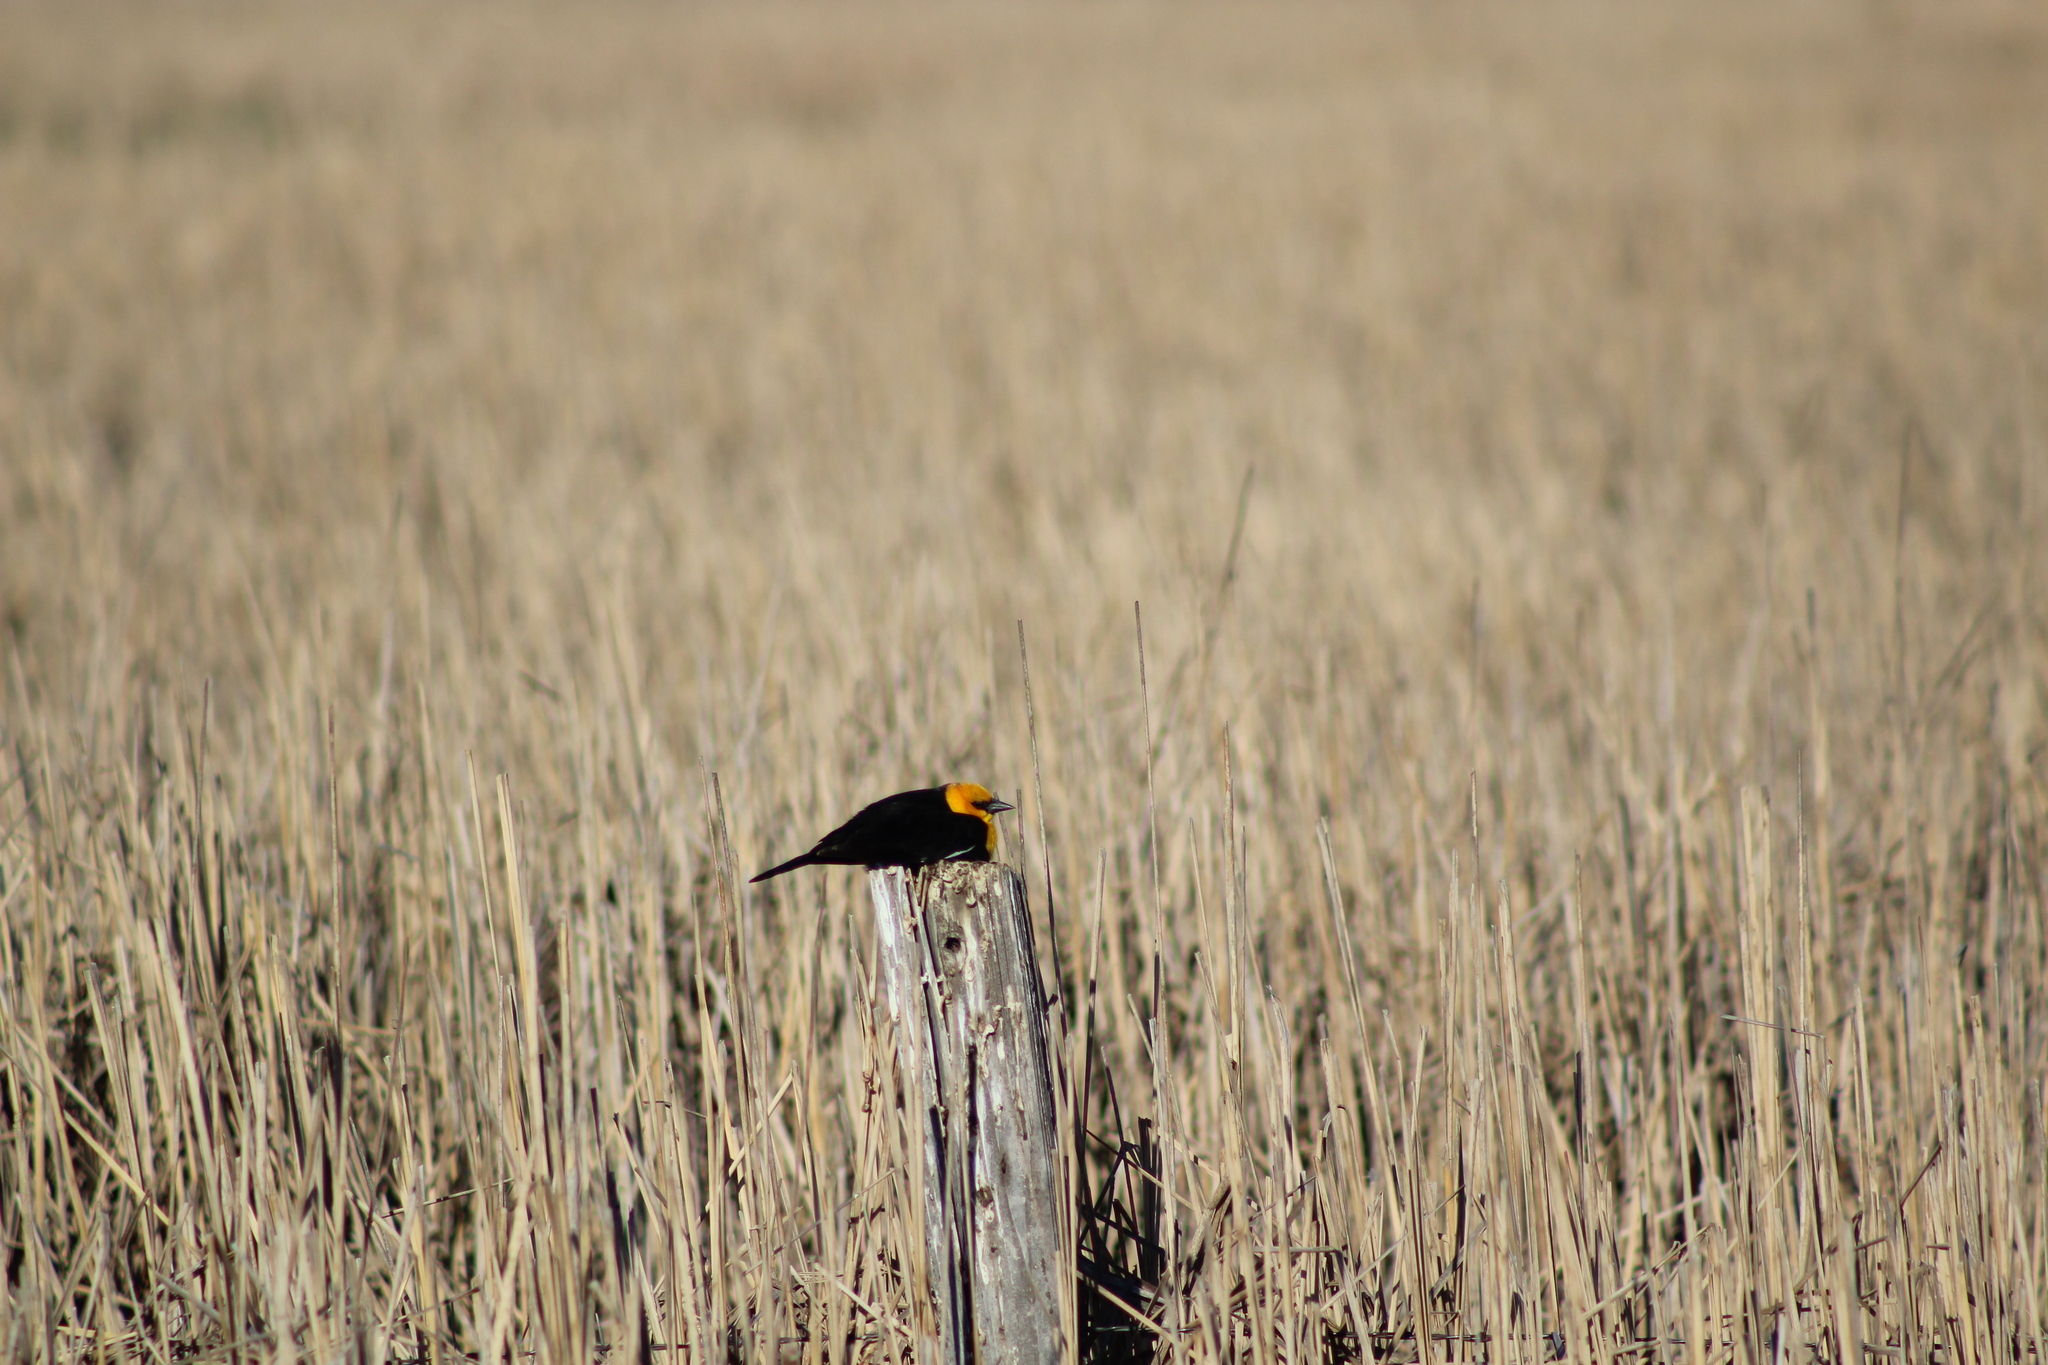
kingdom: Animalia
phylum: Chordata
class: Aves
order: Passeriformes
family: Icteridae
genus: Xanthocephalus
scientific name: Xanthocephalus xanthocephalus
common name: Yellow-headed blackbird
